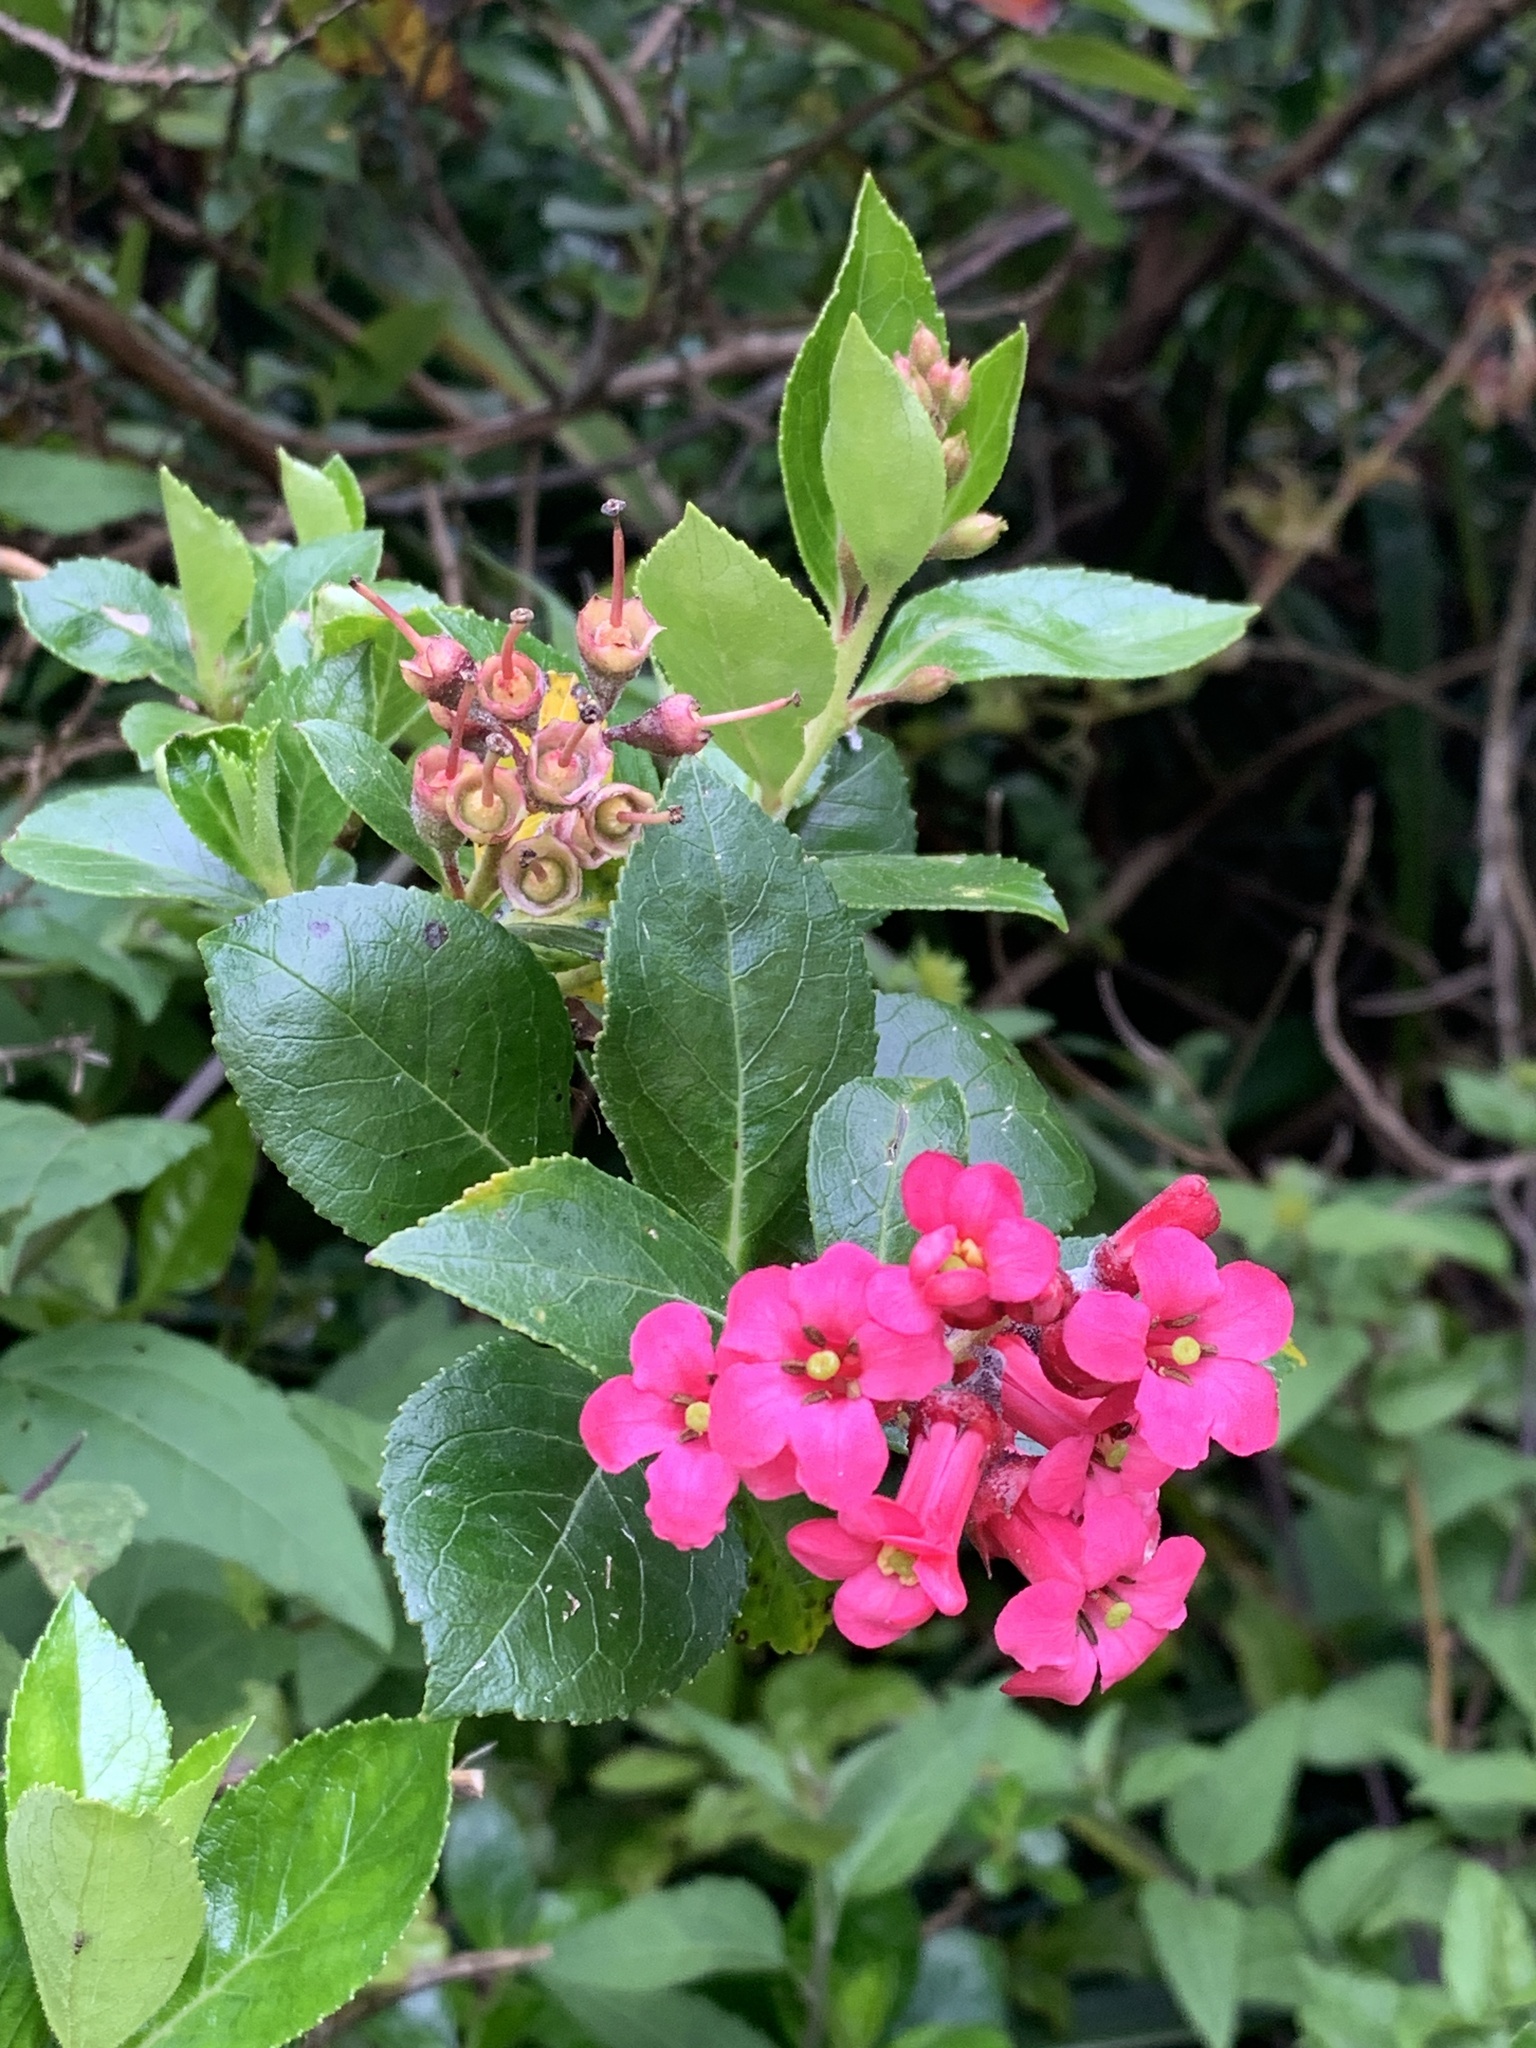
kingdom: Plantae
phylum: Tracheophyta
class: Magnoliopsida
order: Escalloniales
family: Escalloniaceae
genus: Escallonia
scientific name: Escallonia rubra
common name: Redclaws
